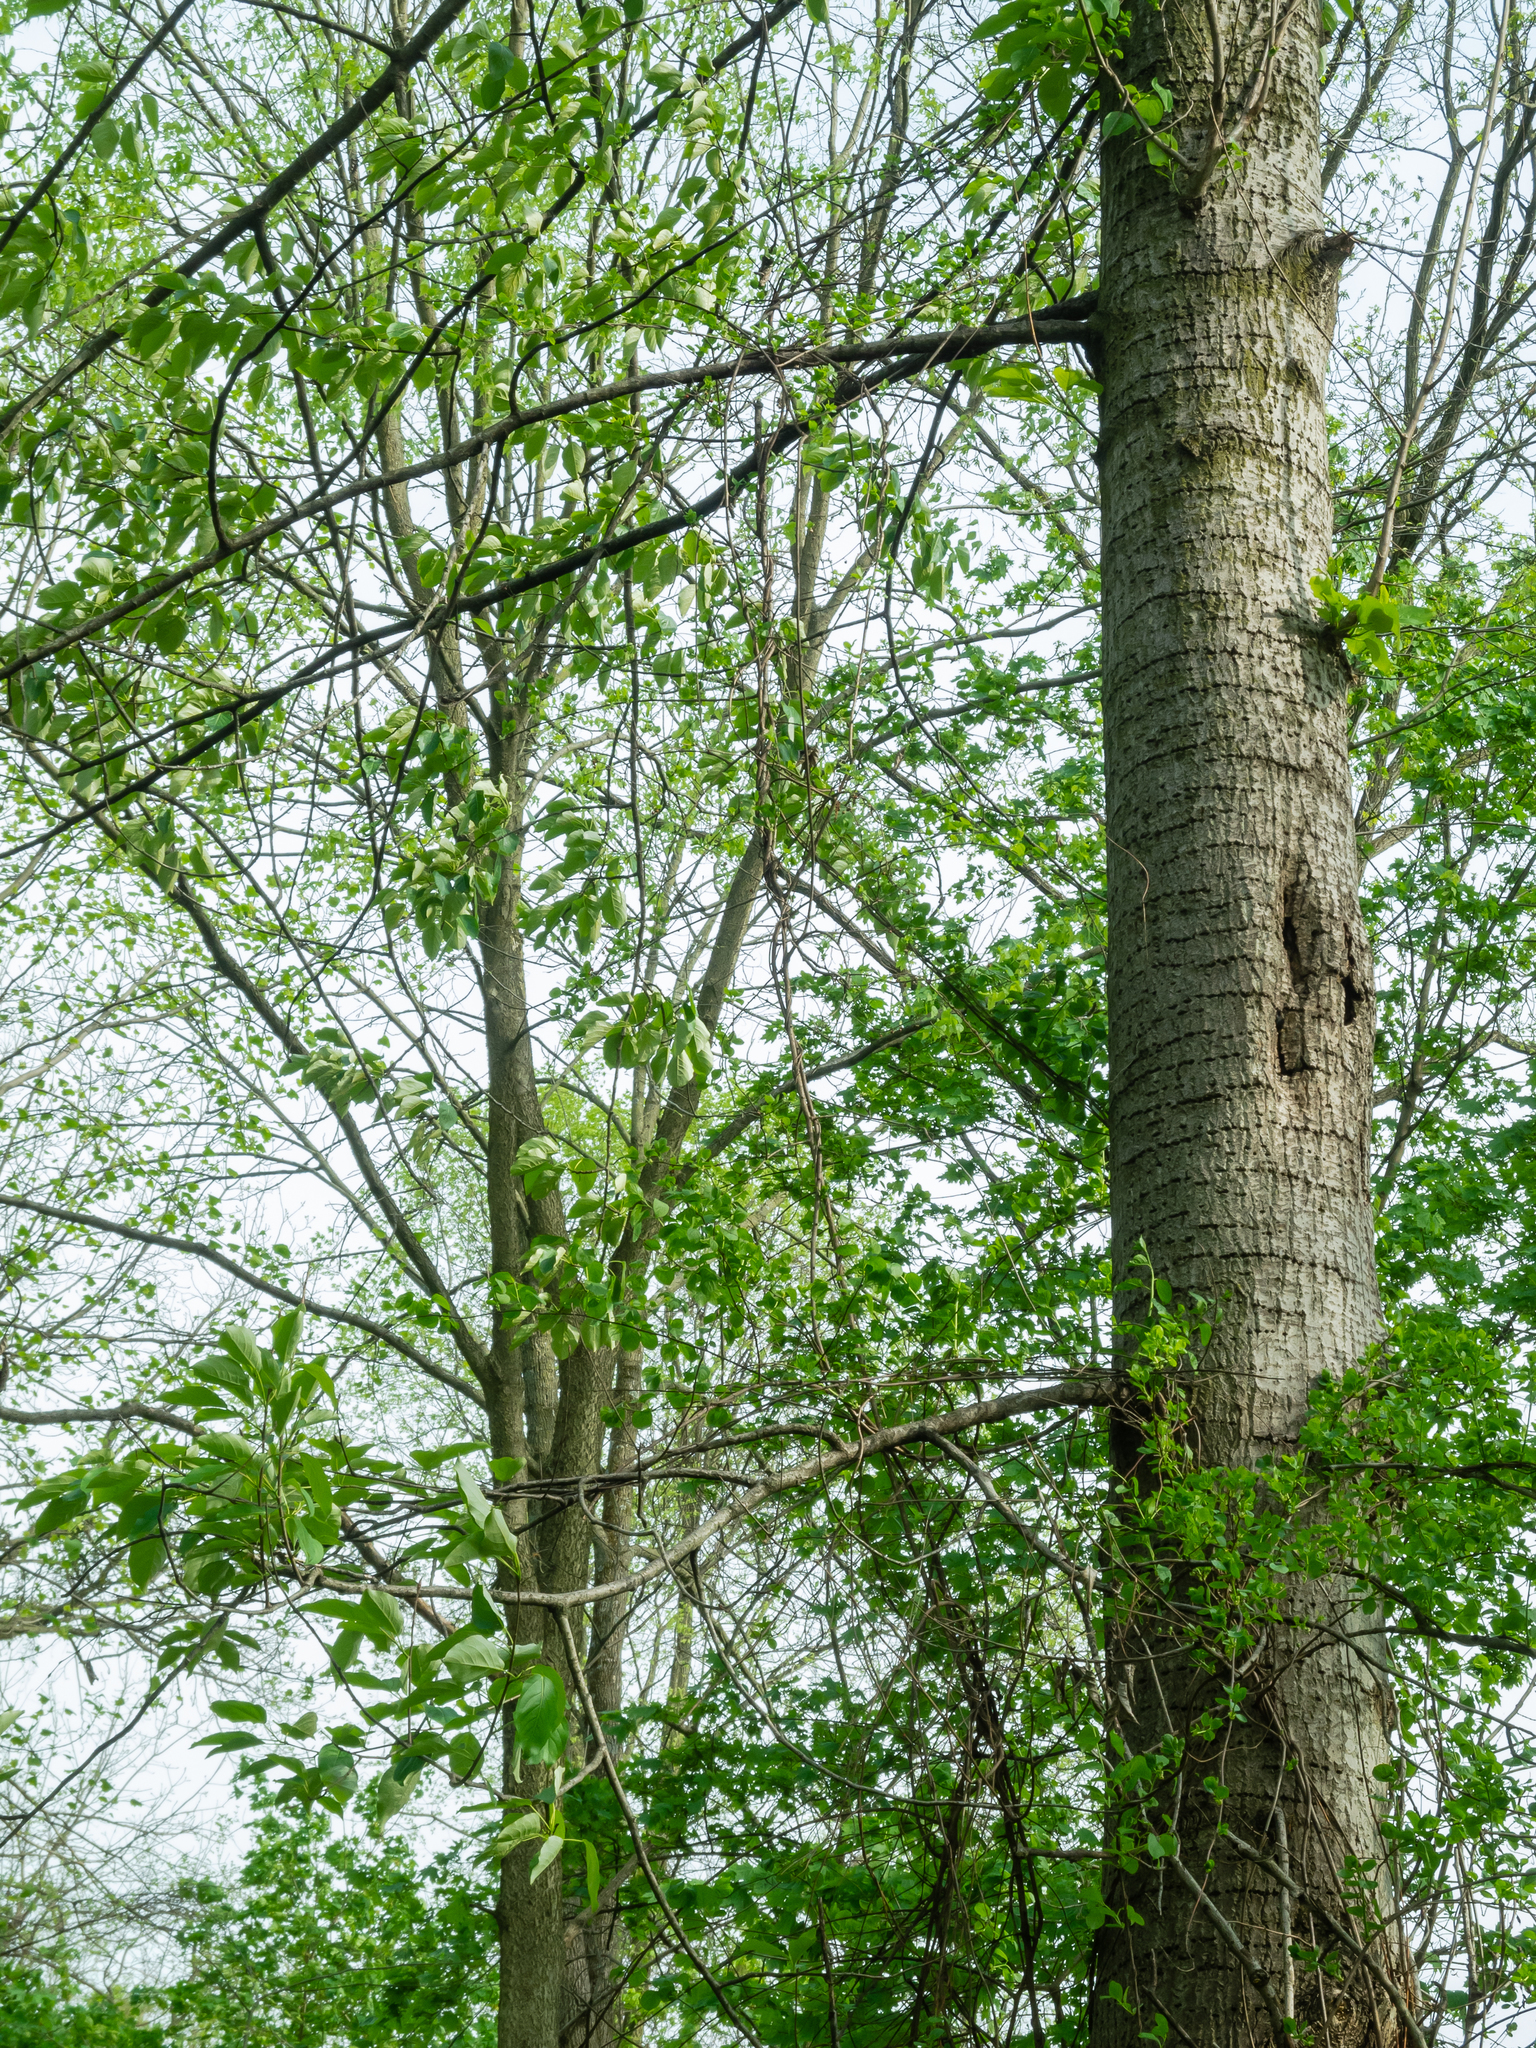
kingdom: Animalia
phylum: Chordata
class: Aves
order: Piciformes
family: Picidae
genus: Sphyrapicus
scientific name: Sphyrapicus varius
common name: Yellow-bellied sapsucker
